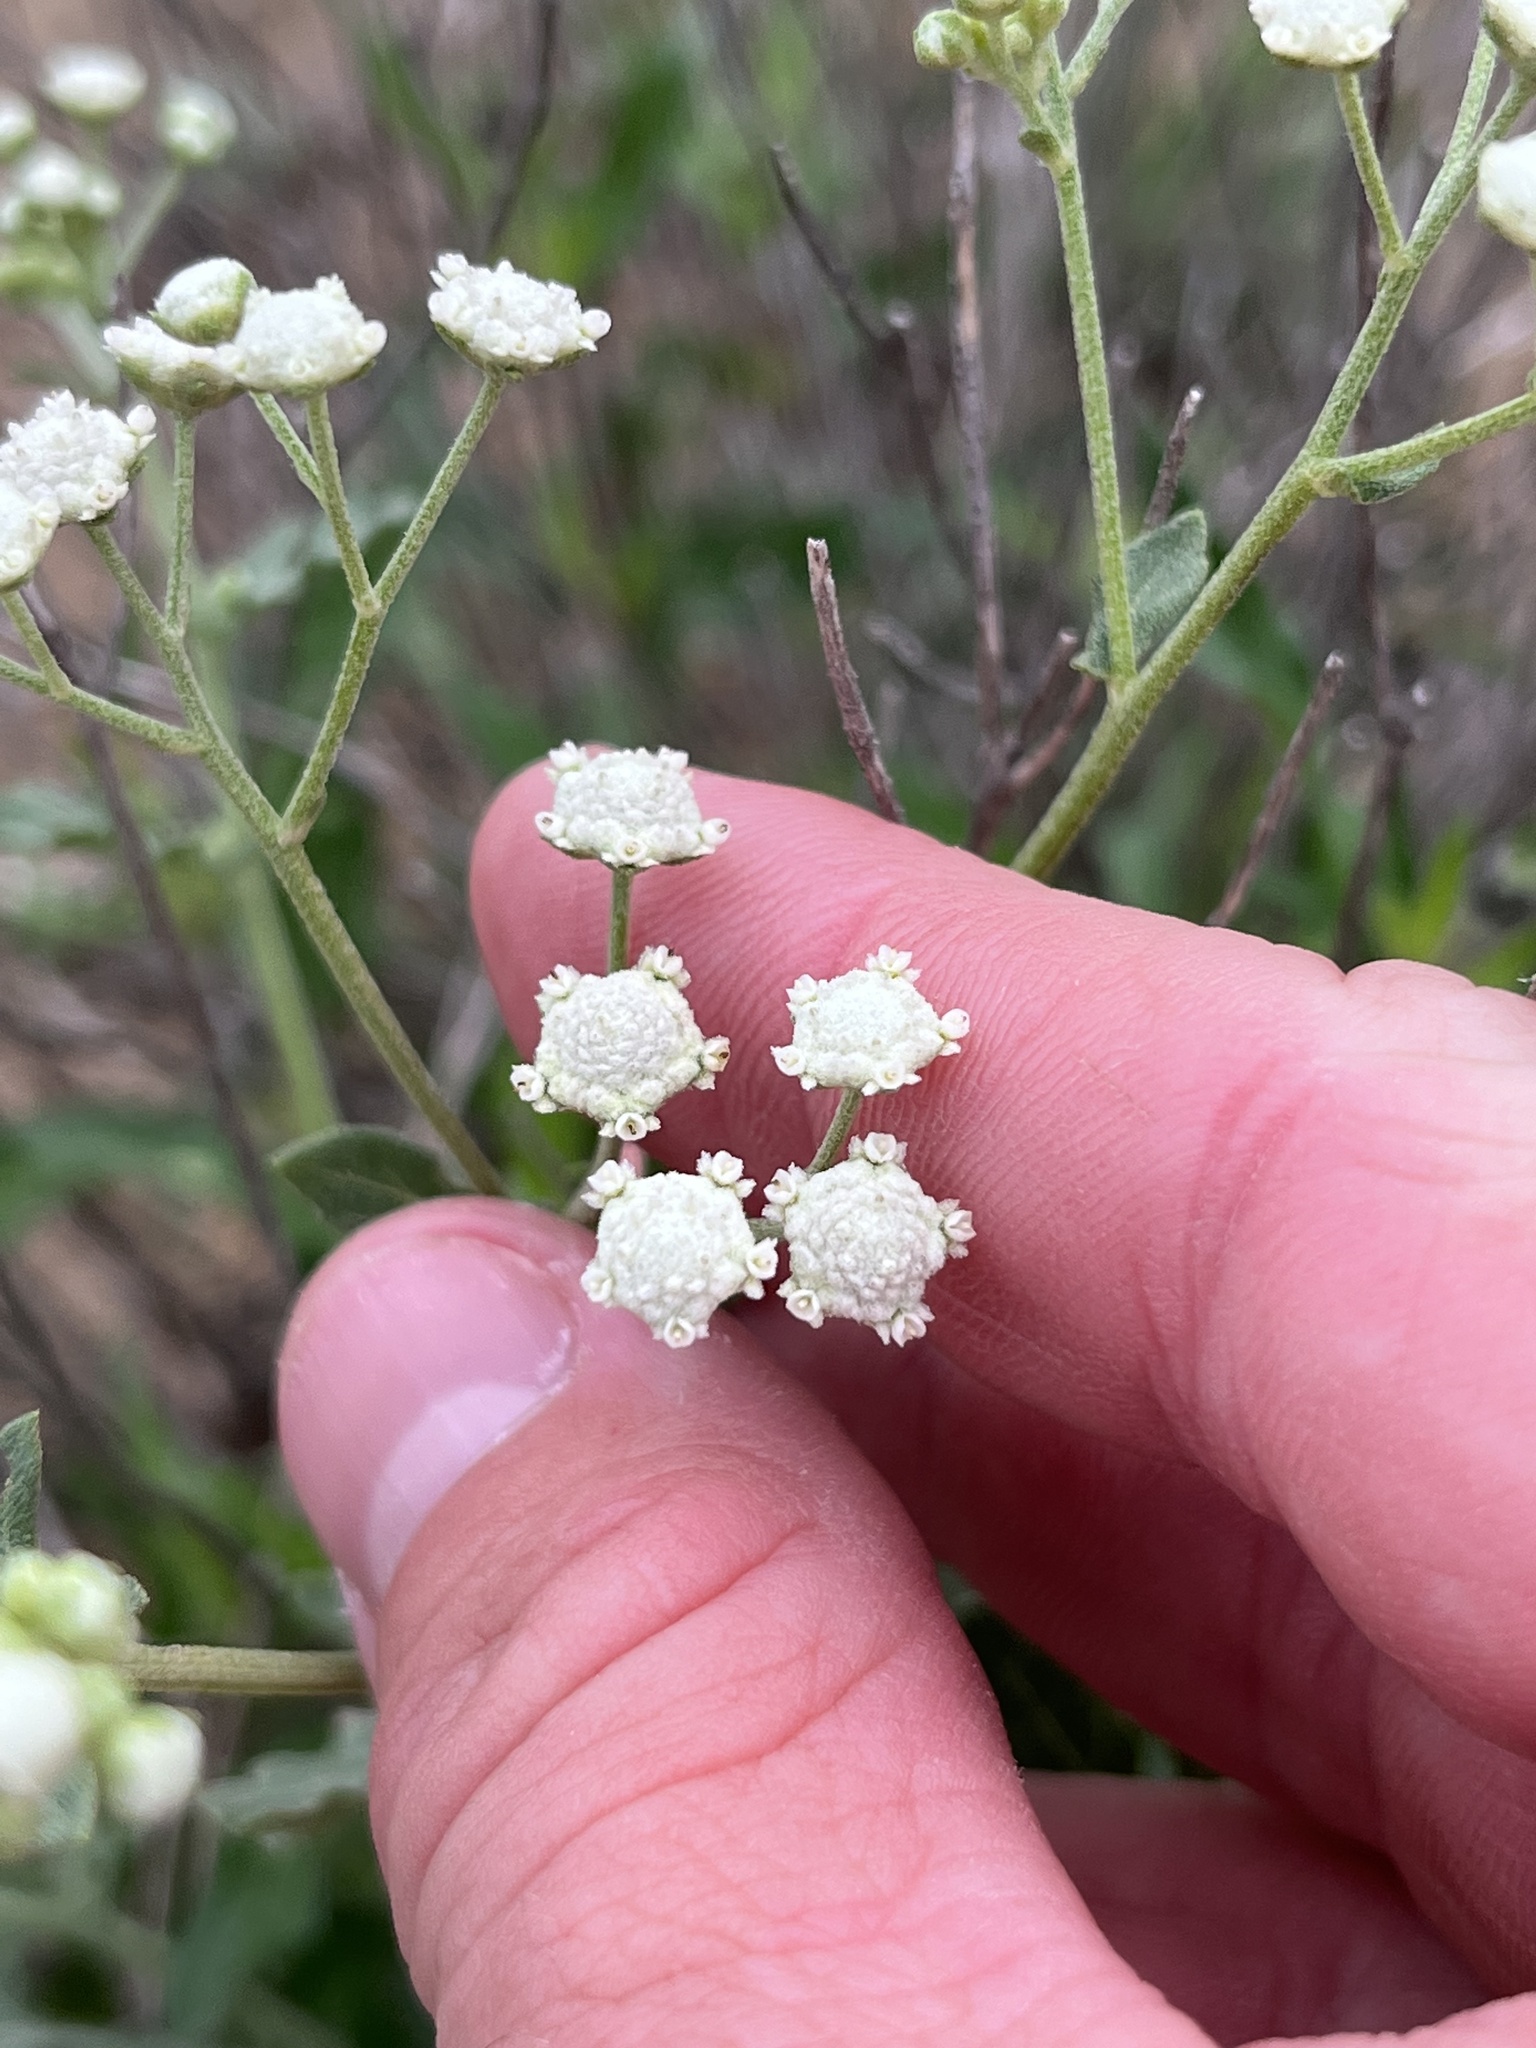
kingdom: Plantae
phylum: Tracheophyta
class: Magnoliopsida
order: Asterales
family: Asteraceae
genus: Parthenium
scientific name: Parthenium confertum
